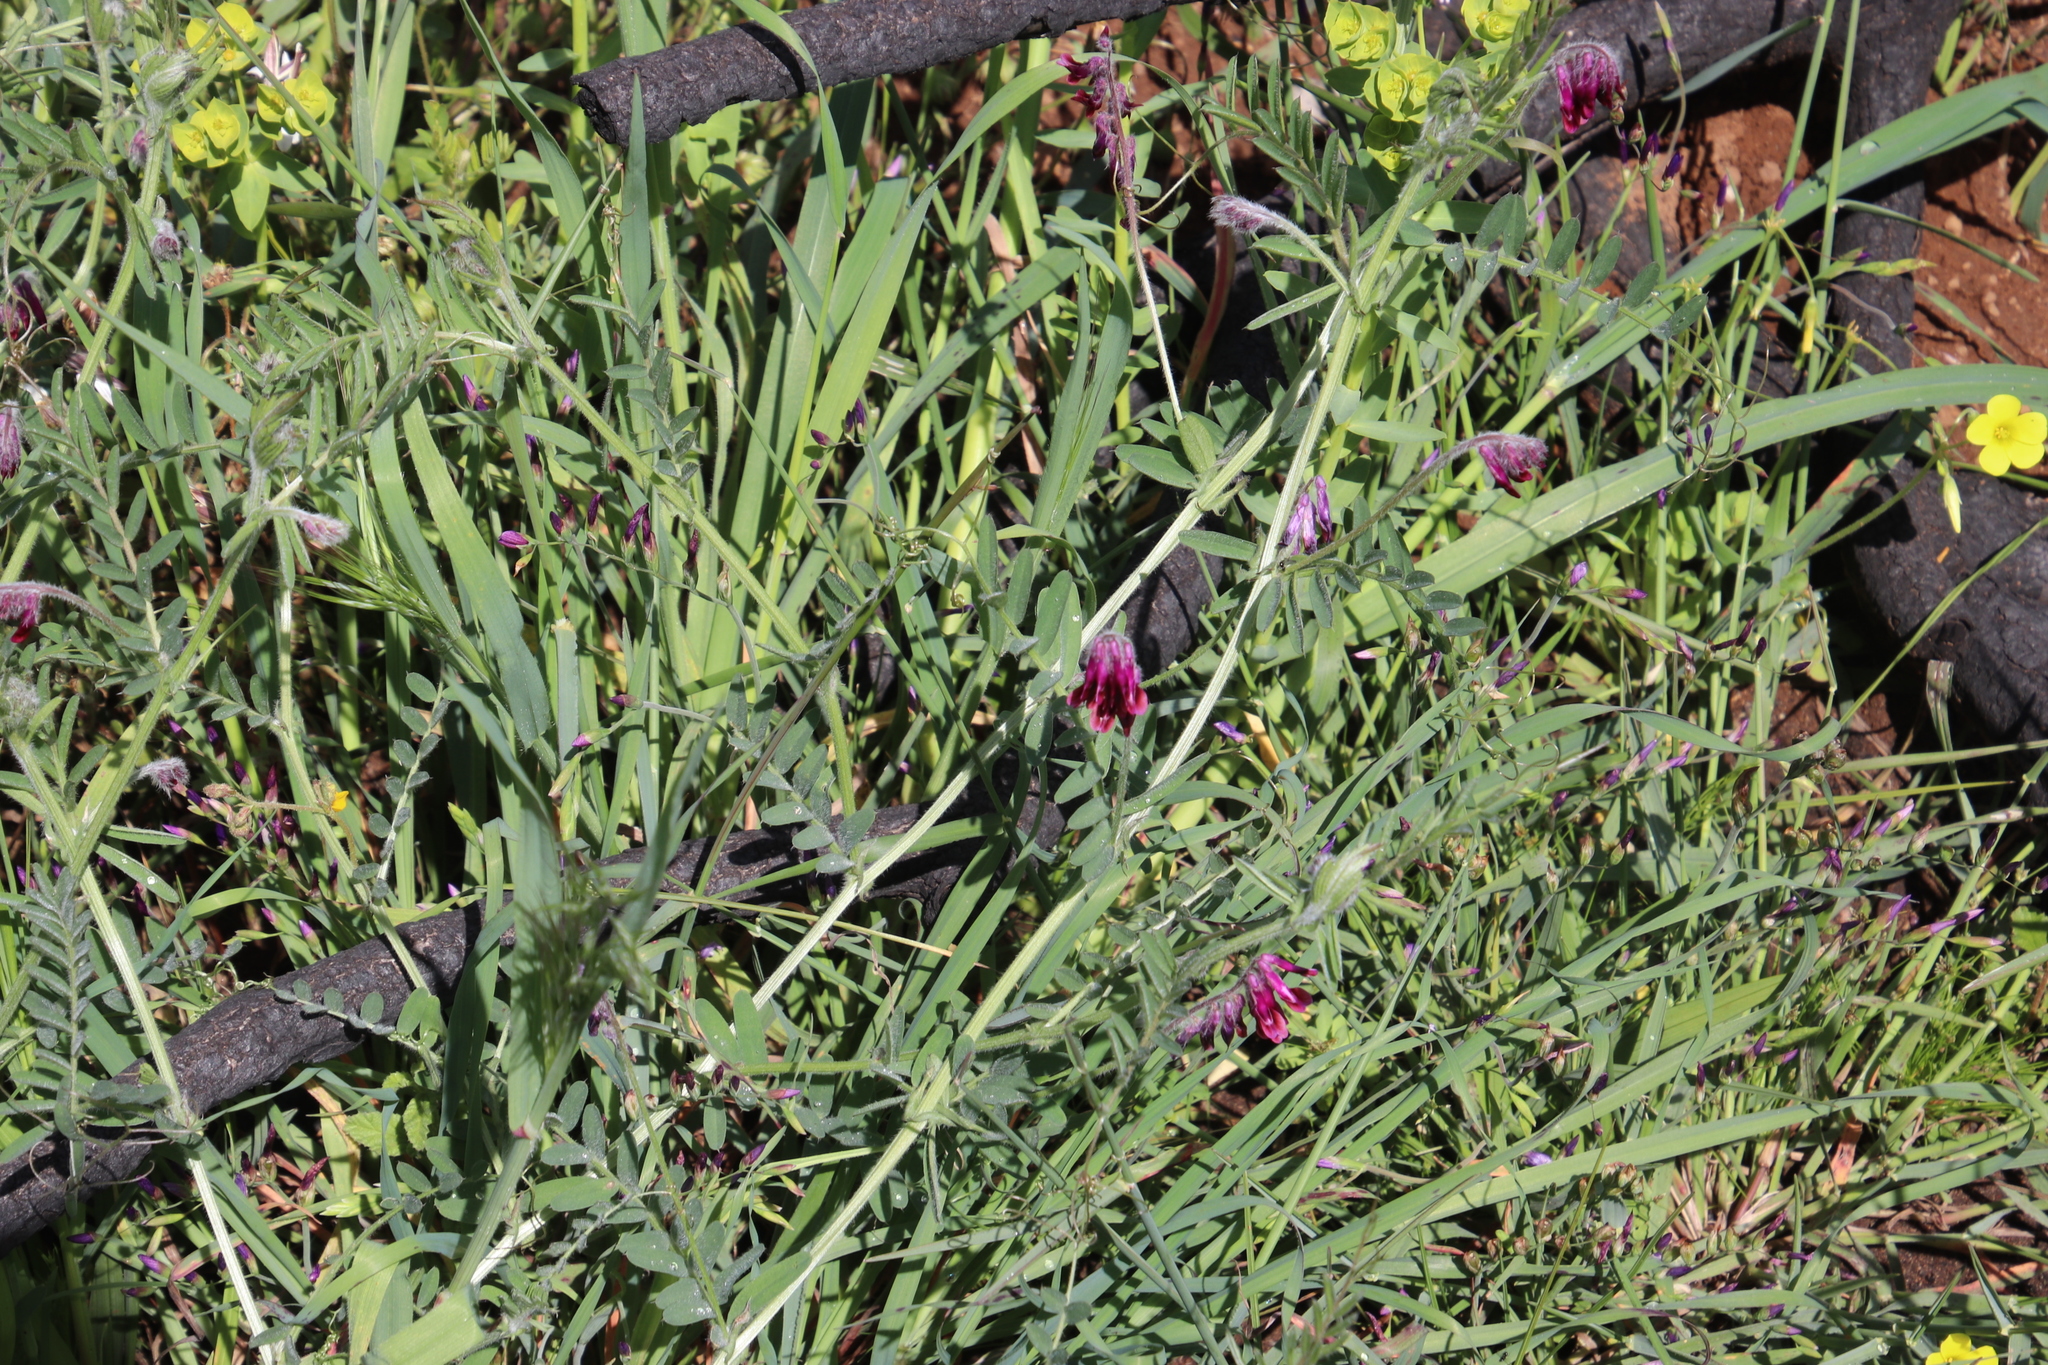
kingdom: Plantae
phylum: Tracheophyta
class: Magnoliopsida
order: Fabales
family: Fabaceae
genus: Vicia
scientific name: Vicia benghalensis
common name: Purple vetch
